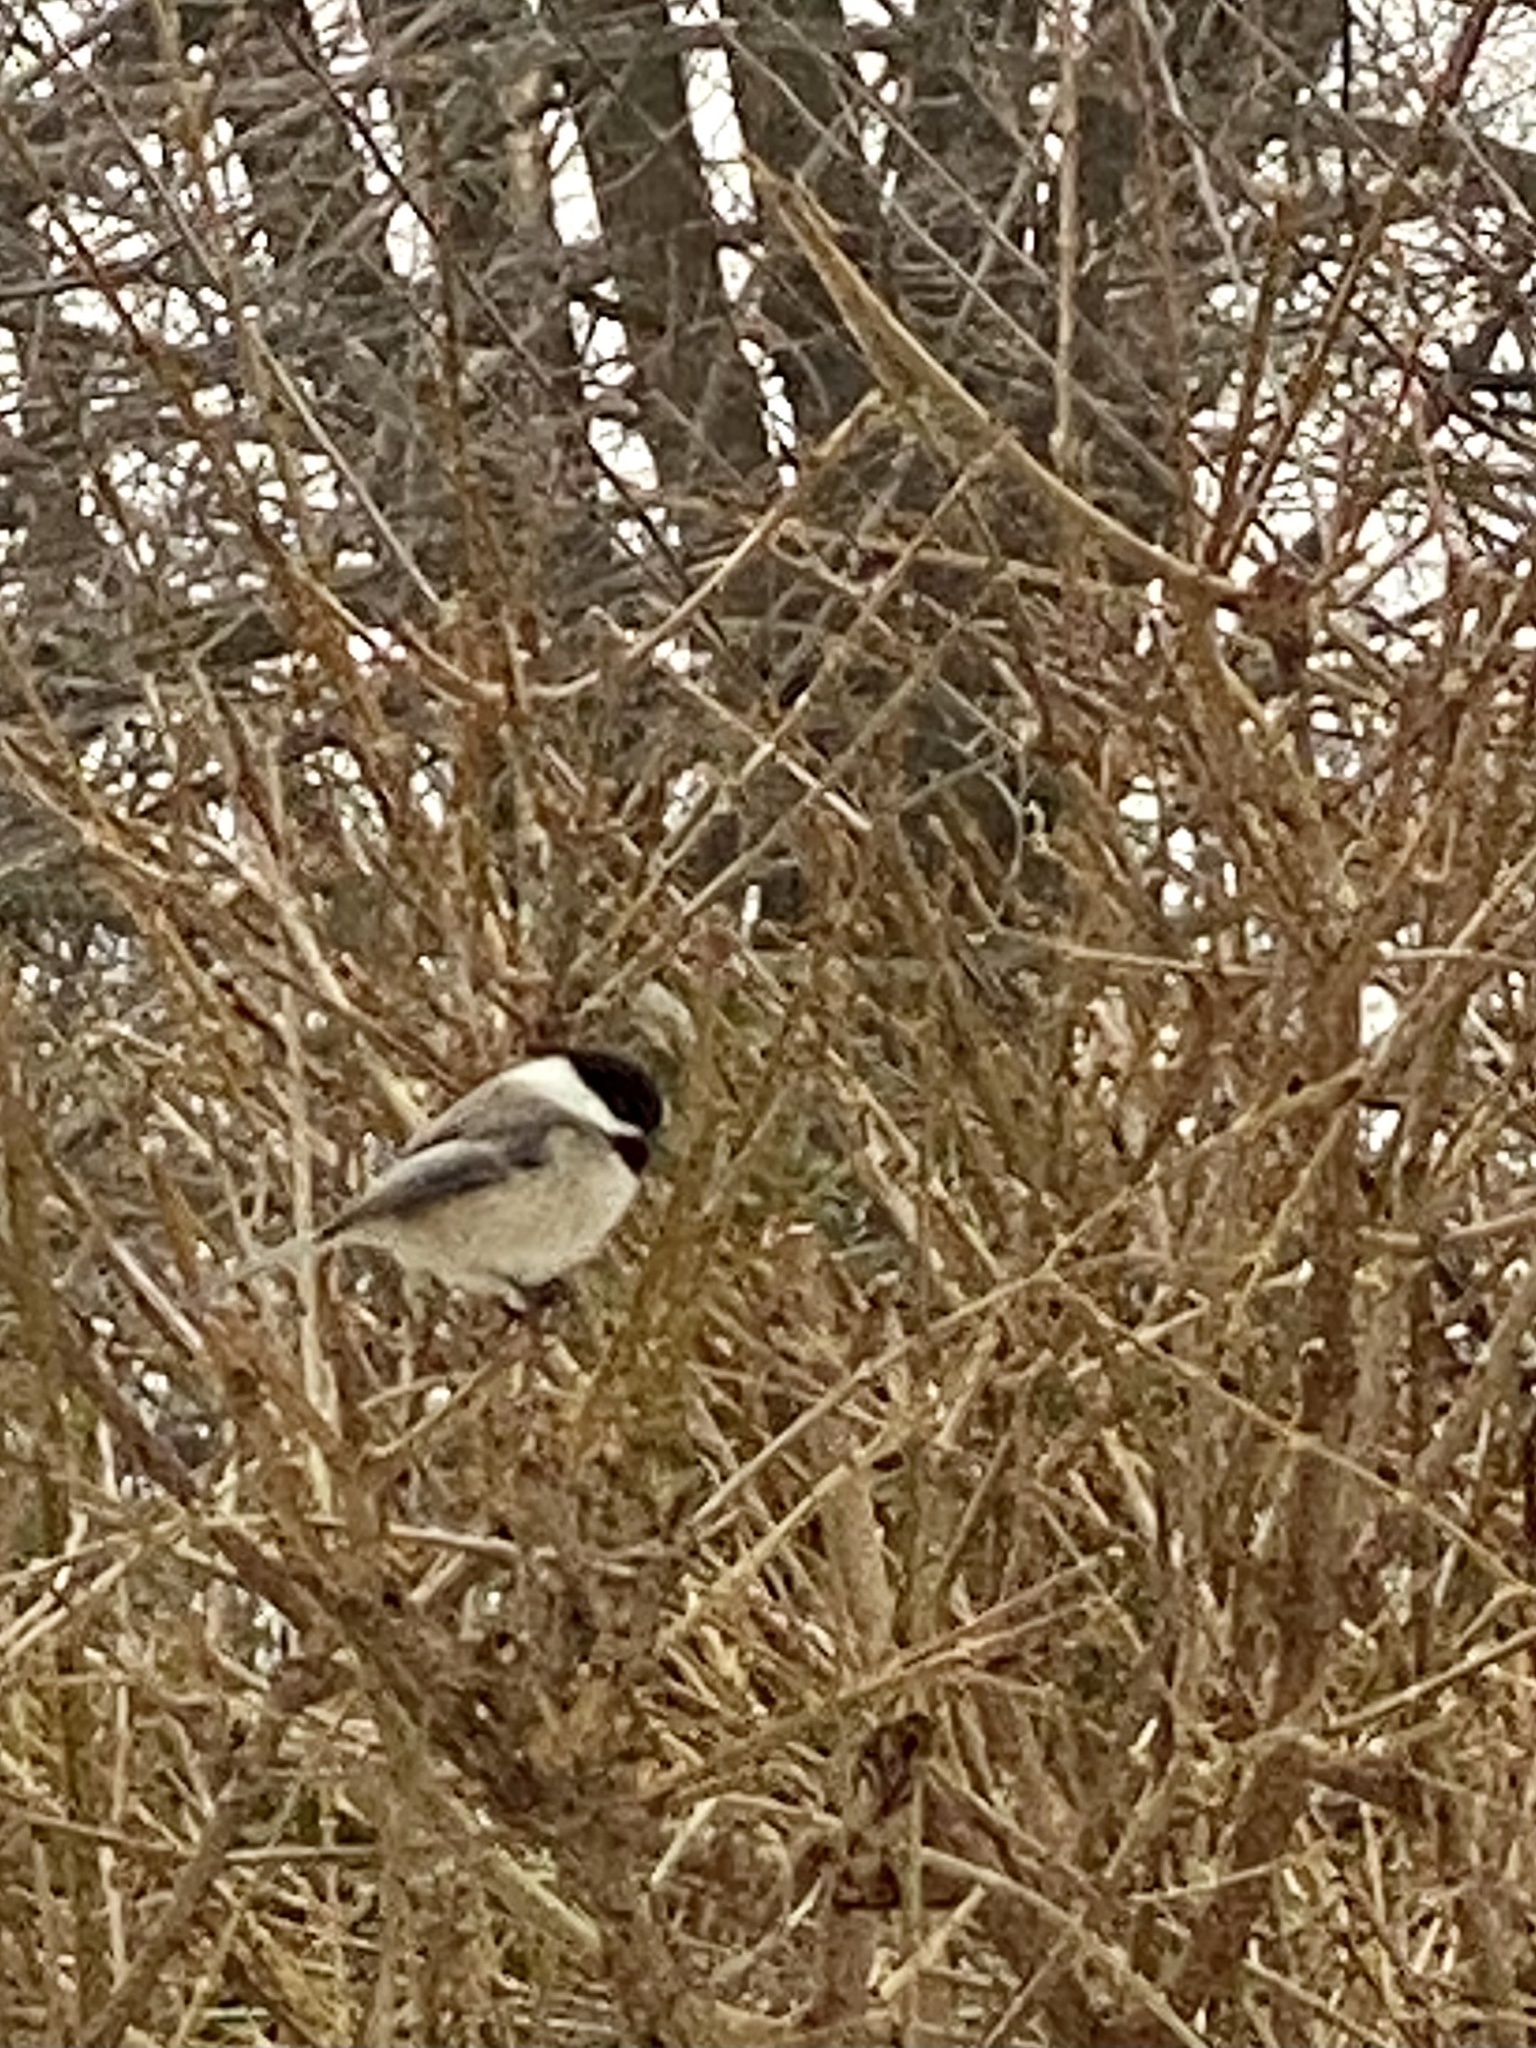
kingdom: Animalia
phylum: Chordata
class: Aves
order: Passeriformes
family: Paridae
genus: Poecile
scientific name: Poecile atricapillus
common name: Black-capped chickadee
